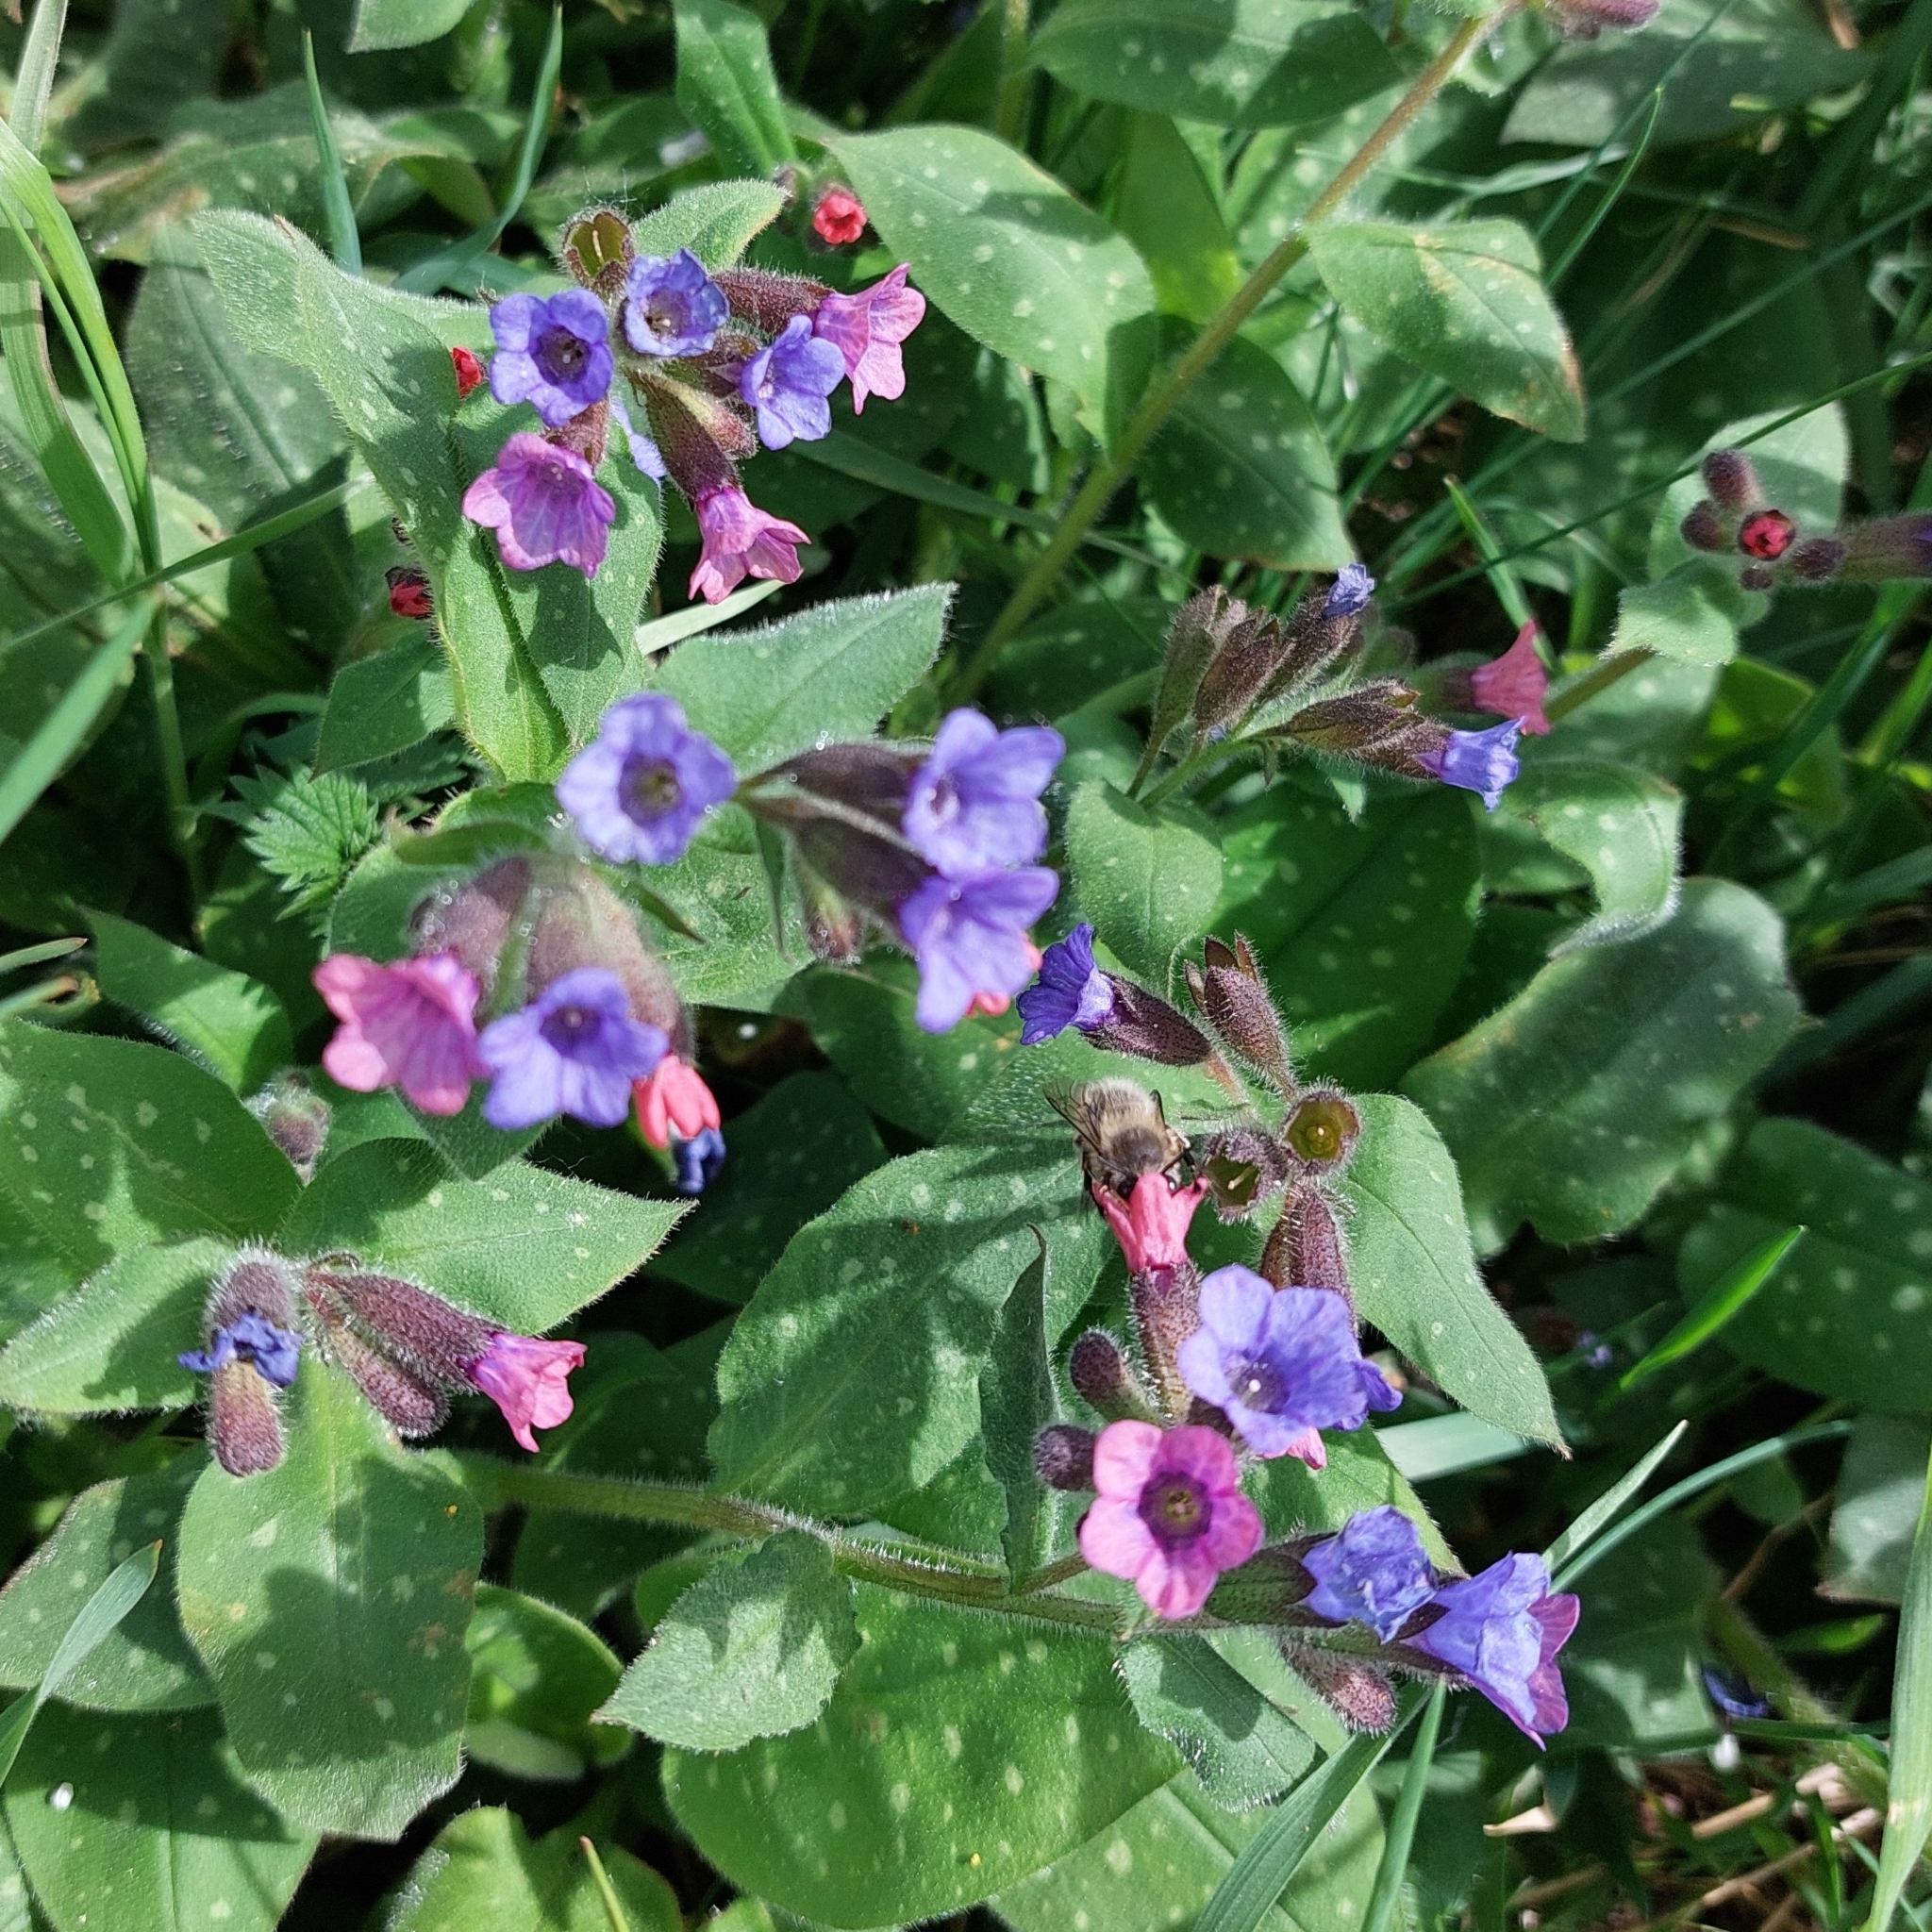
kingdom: Plantae
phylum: Tracheophyta
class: Magnoliopsida
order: Boraginales
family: Boraginaceae
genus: Pulmonaria
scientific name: Pulmonaria officinalis
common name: Lungwort
